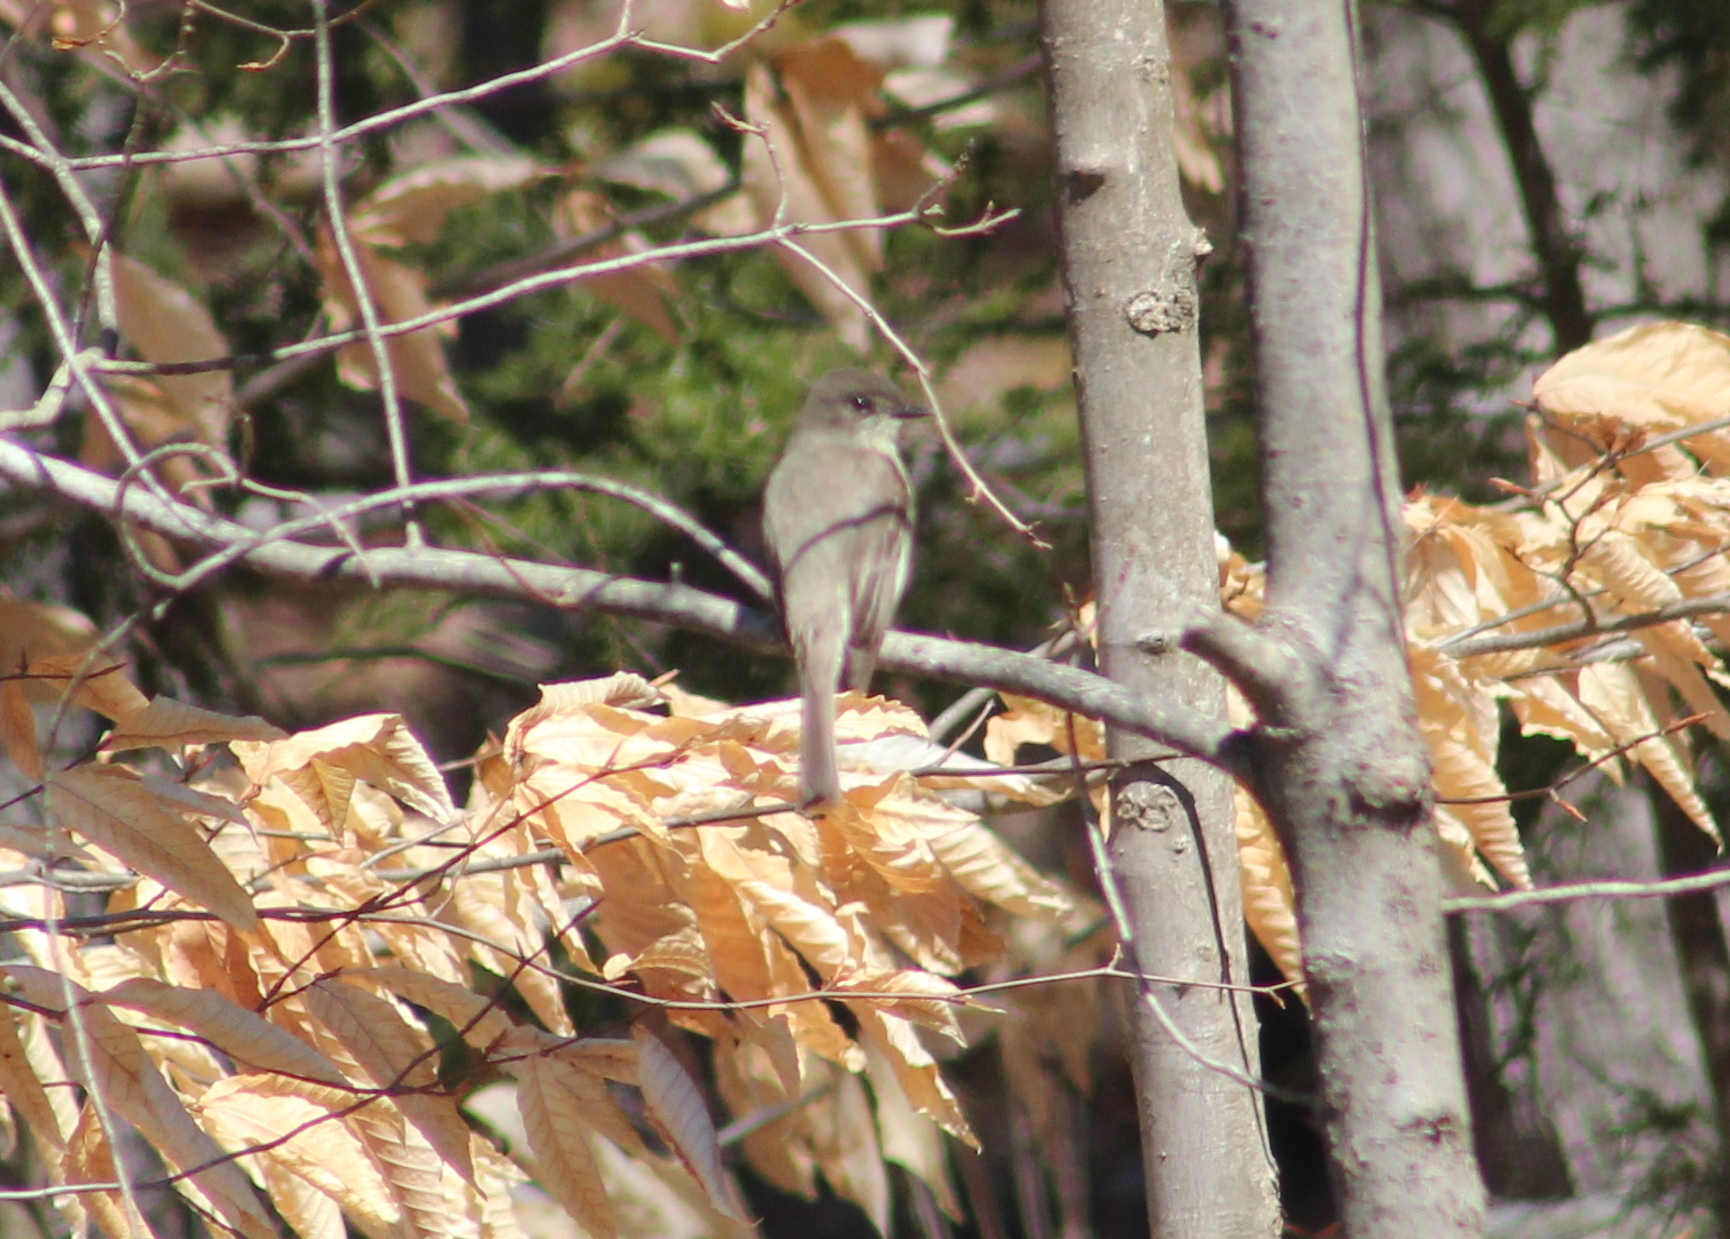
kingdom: Animalia
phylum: Chordata
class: Aves
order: Passeriformes
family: Tyrannidae
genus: Sayornis
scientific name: Sayornis phoebe
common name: Eastern phoebe
